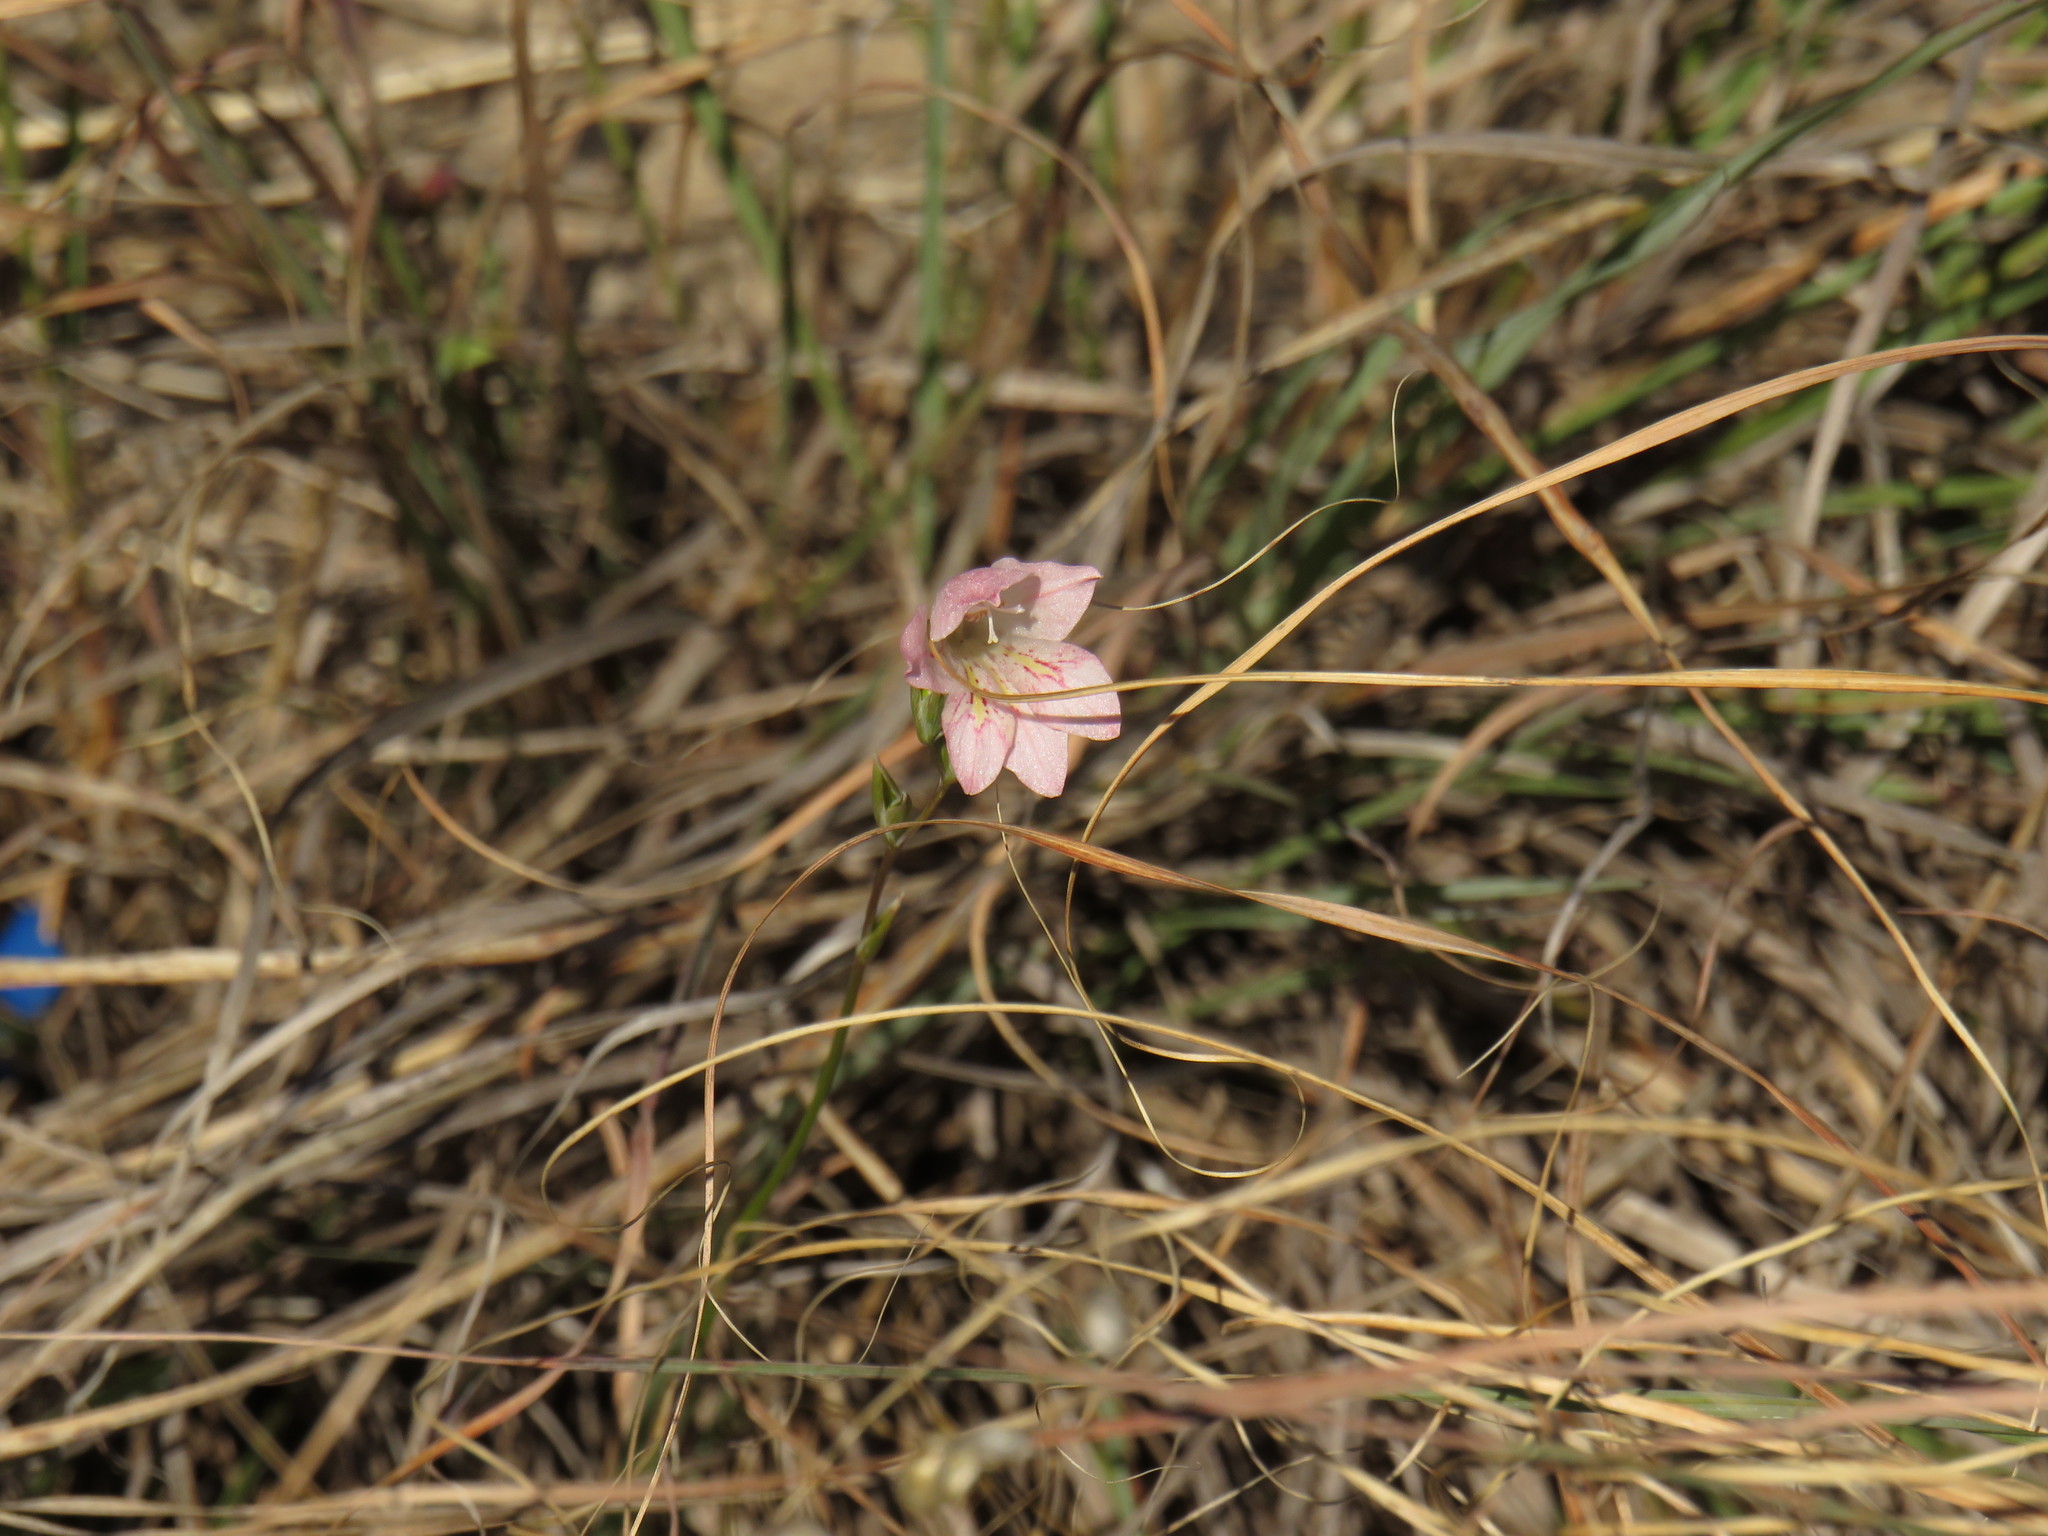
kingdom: Plantae
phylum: Tracheophyta
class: Liliopsida
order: Asparagales
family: Iridaceae
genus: Gladiolus
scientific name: Gladiolus brevifolius
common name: March pypie
